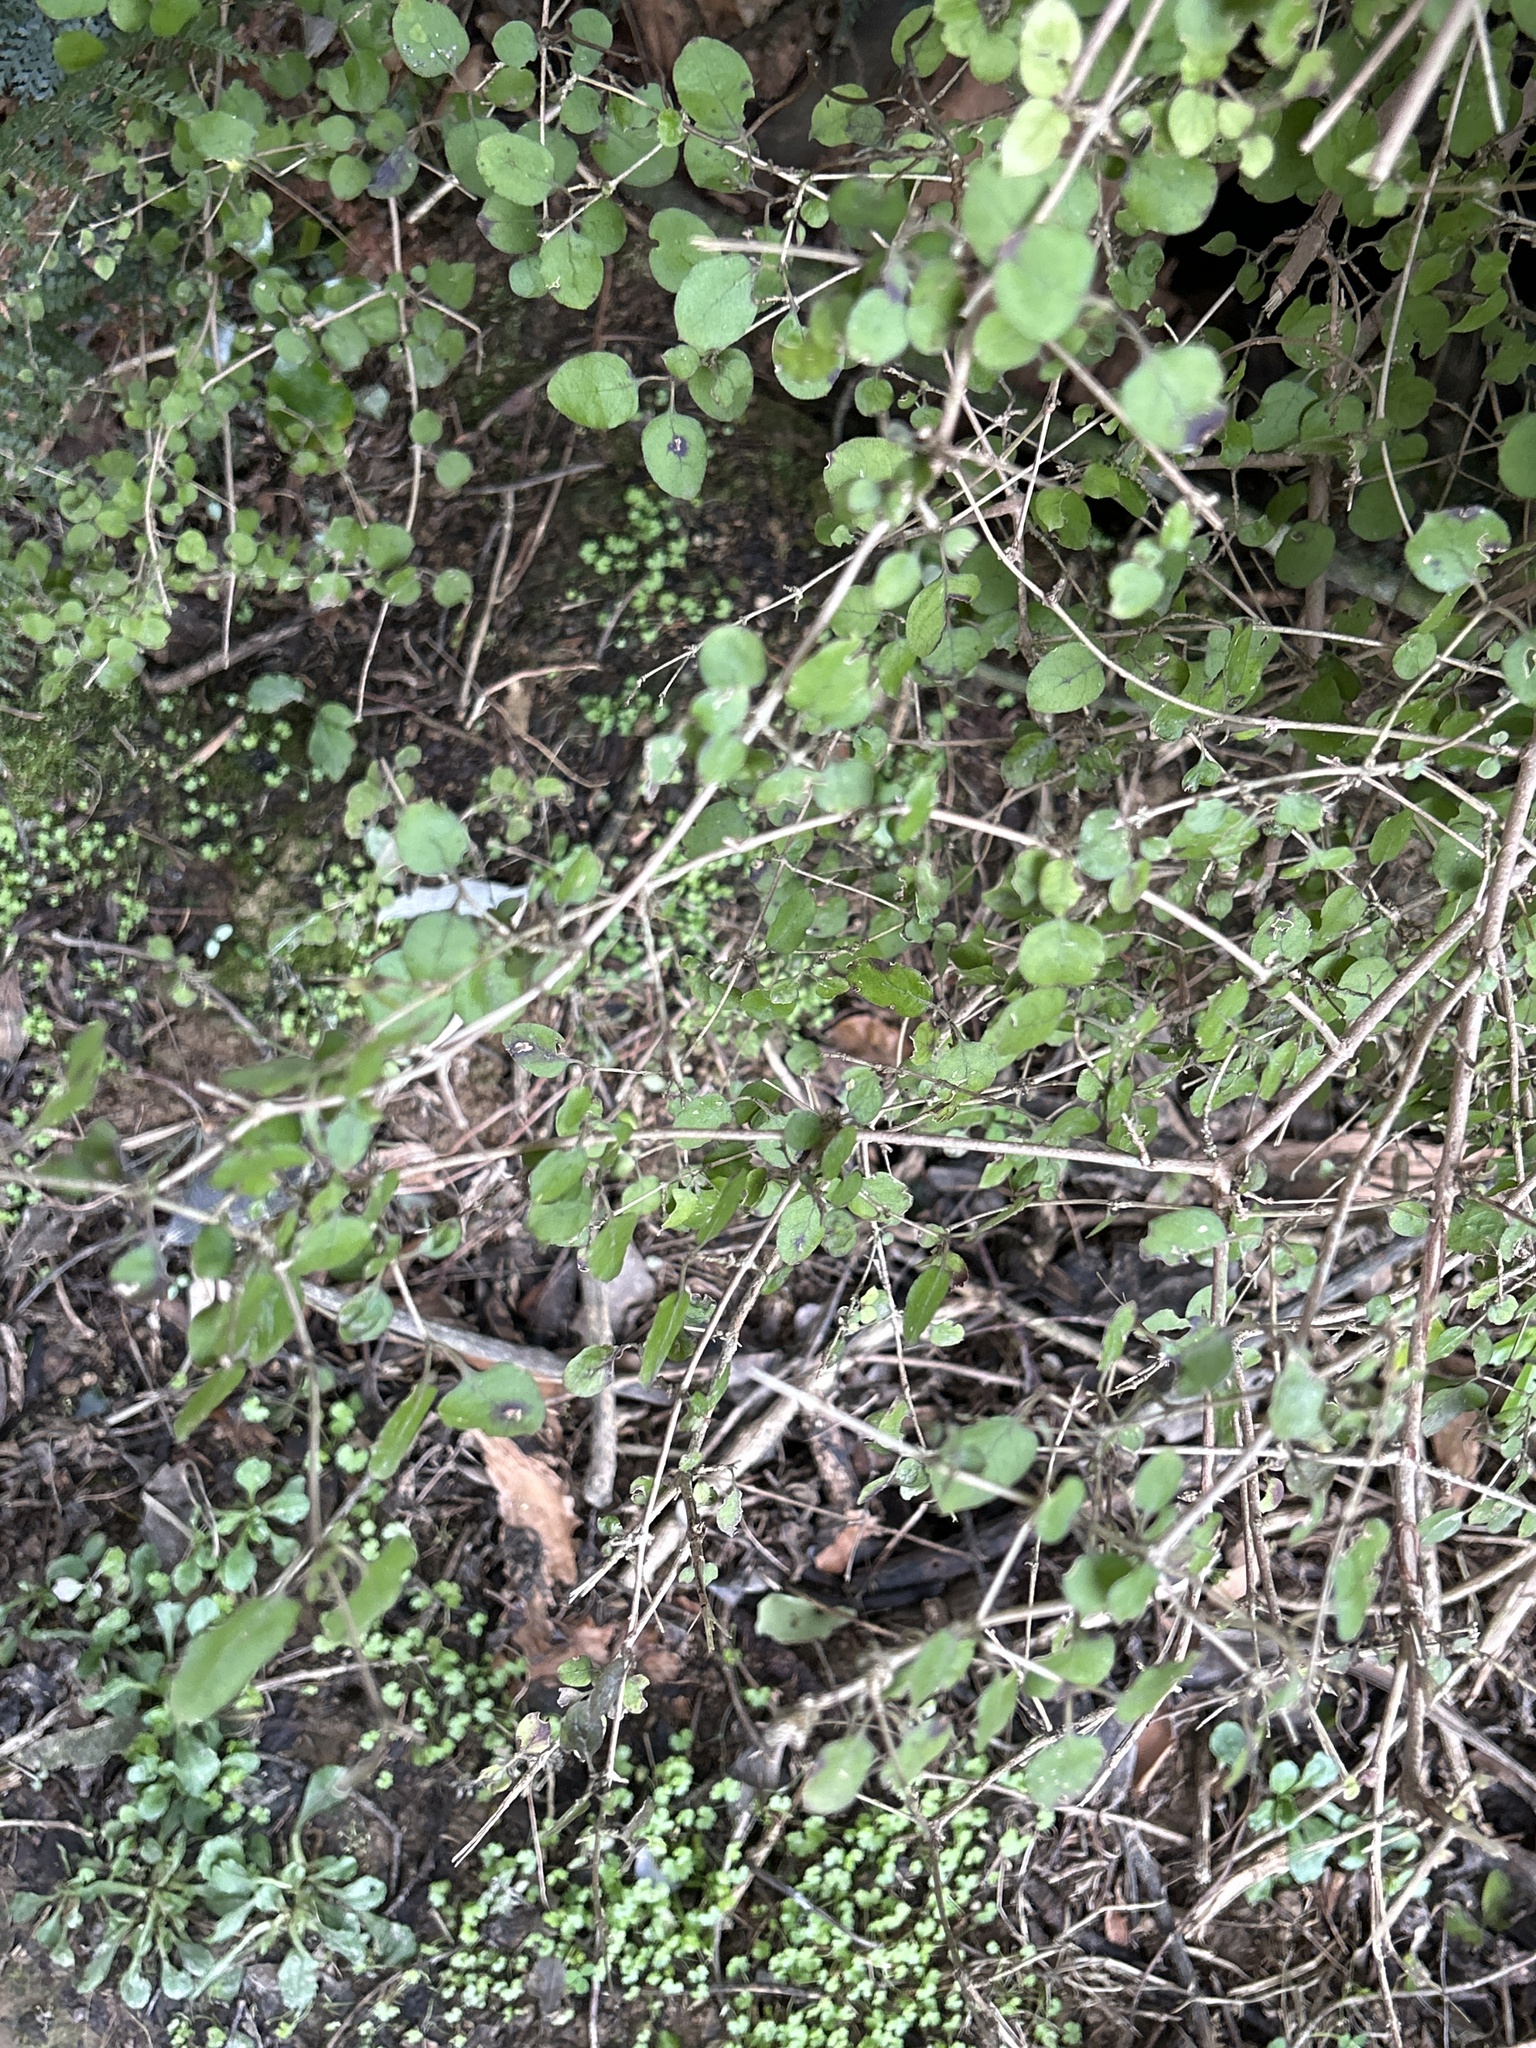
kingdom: Plantae
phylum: Tracheophyta
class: Magnoliopsida
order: Gentianales
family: Rubiaceae
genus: Coprosma
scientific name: Coprosma rotundifolia
